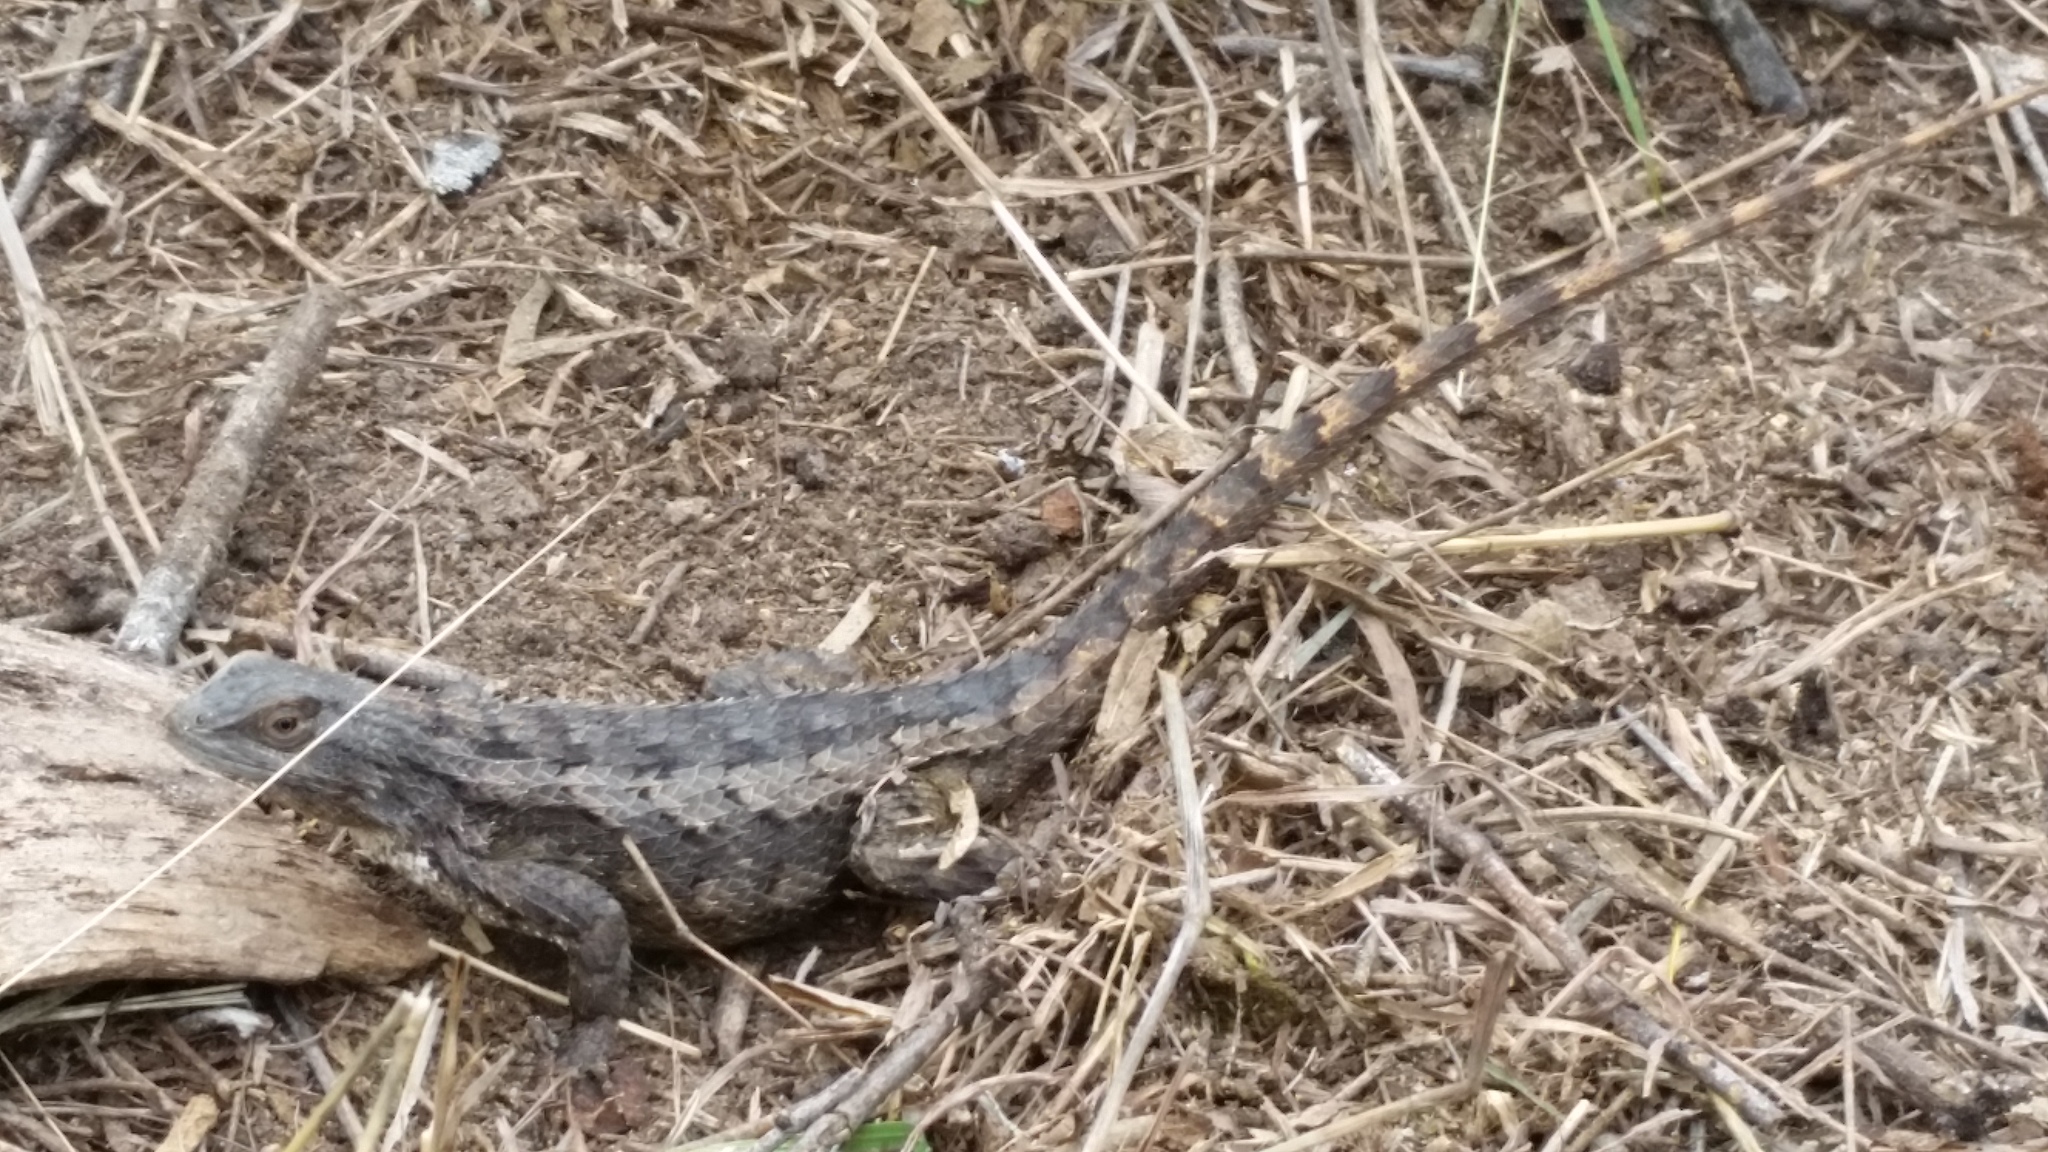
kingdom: Animalia
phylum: Chordata
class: Squamata
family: Phrynosomatidae
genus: Sceloporus
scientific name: Sceloporus olivaceus
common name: Texas spiny lizard
